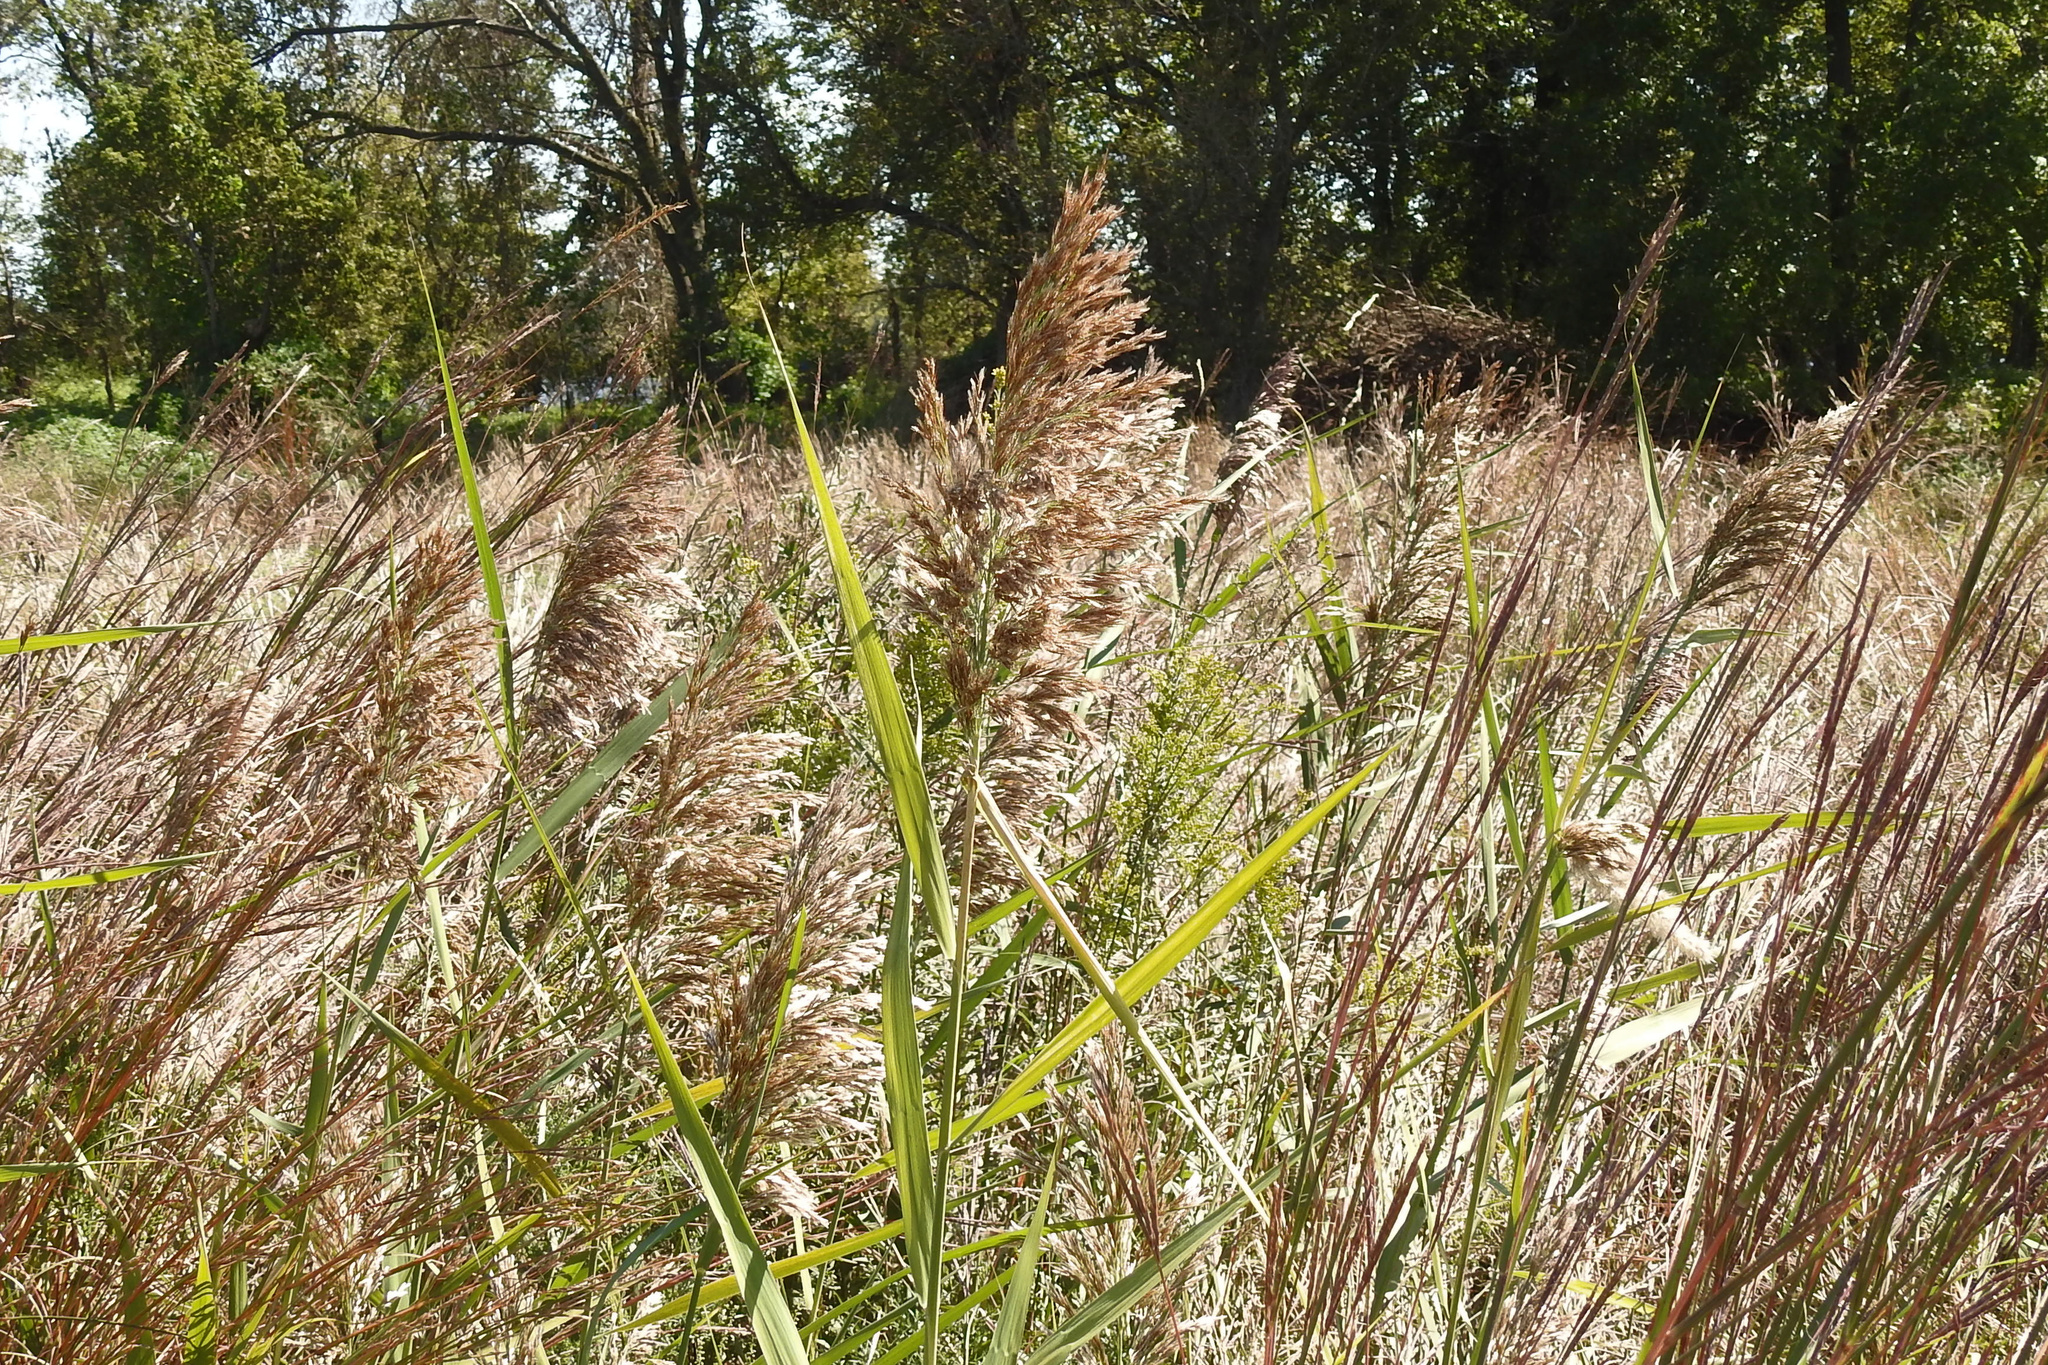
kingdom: Plantae
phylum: Tracheophyta
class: Liliopsida
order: Poales
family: Poaceae
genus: Phragmites
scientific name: Phragmites australis
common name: Common reed
